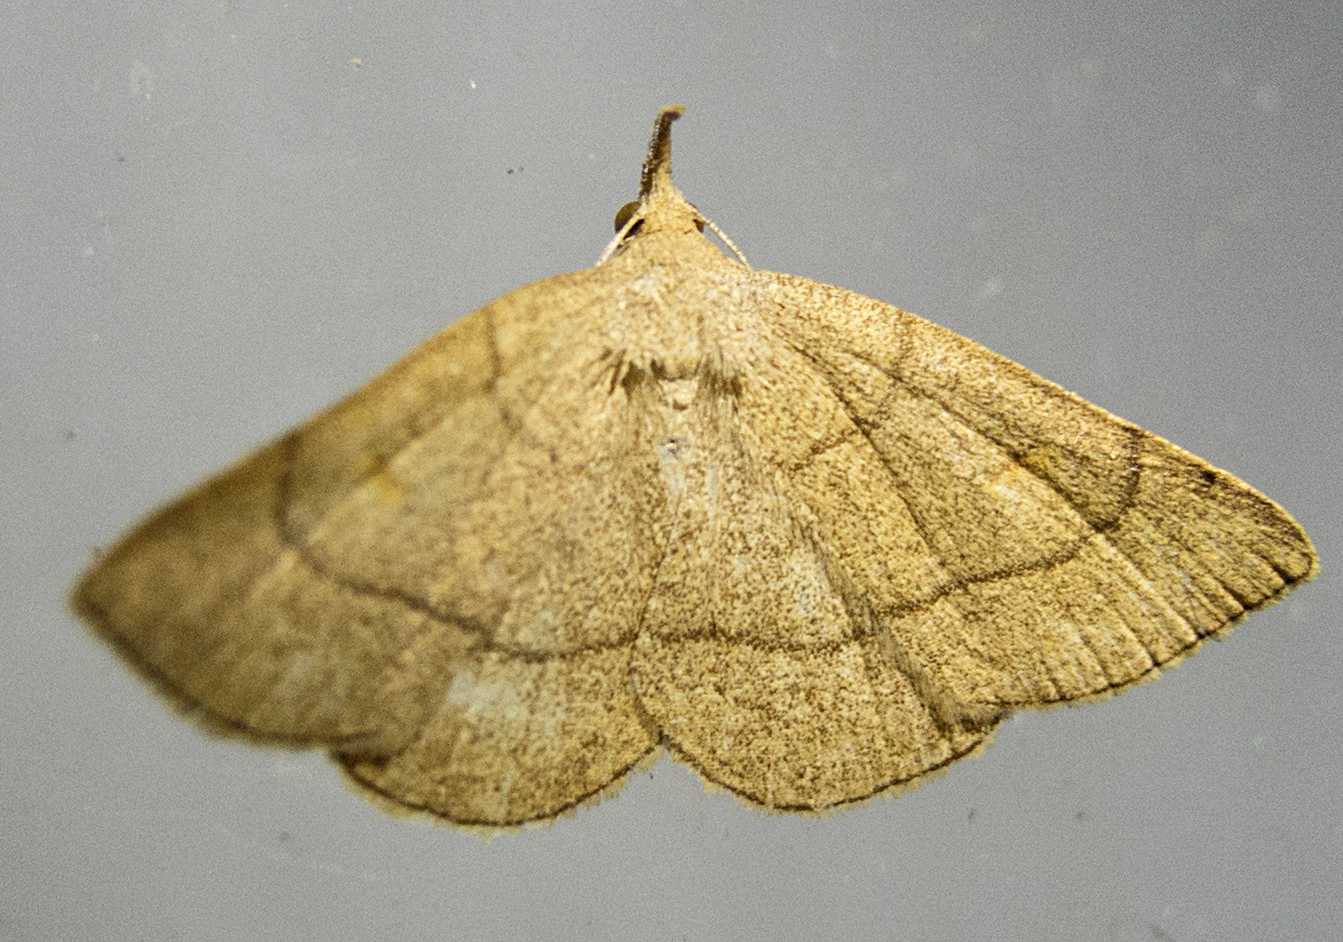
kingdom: Animalia
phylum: Arthropoda
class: Insecta
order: Lepidoptera
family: Erebidae
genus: Paracolax
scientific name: Paracolax tristalis
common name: Clay fan-foot
